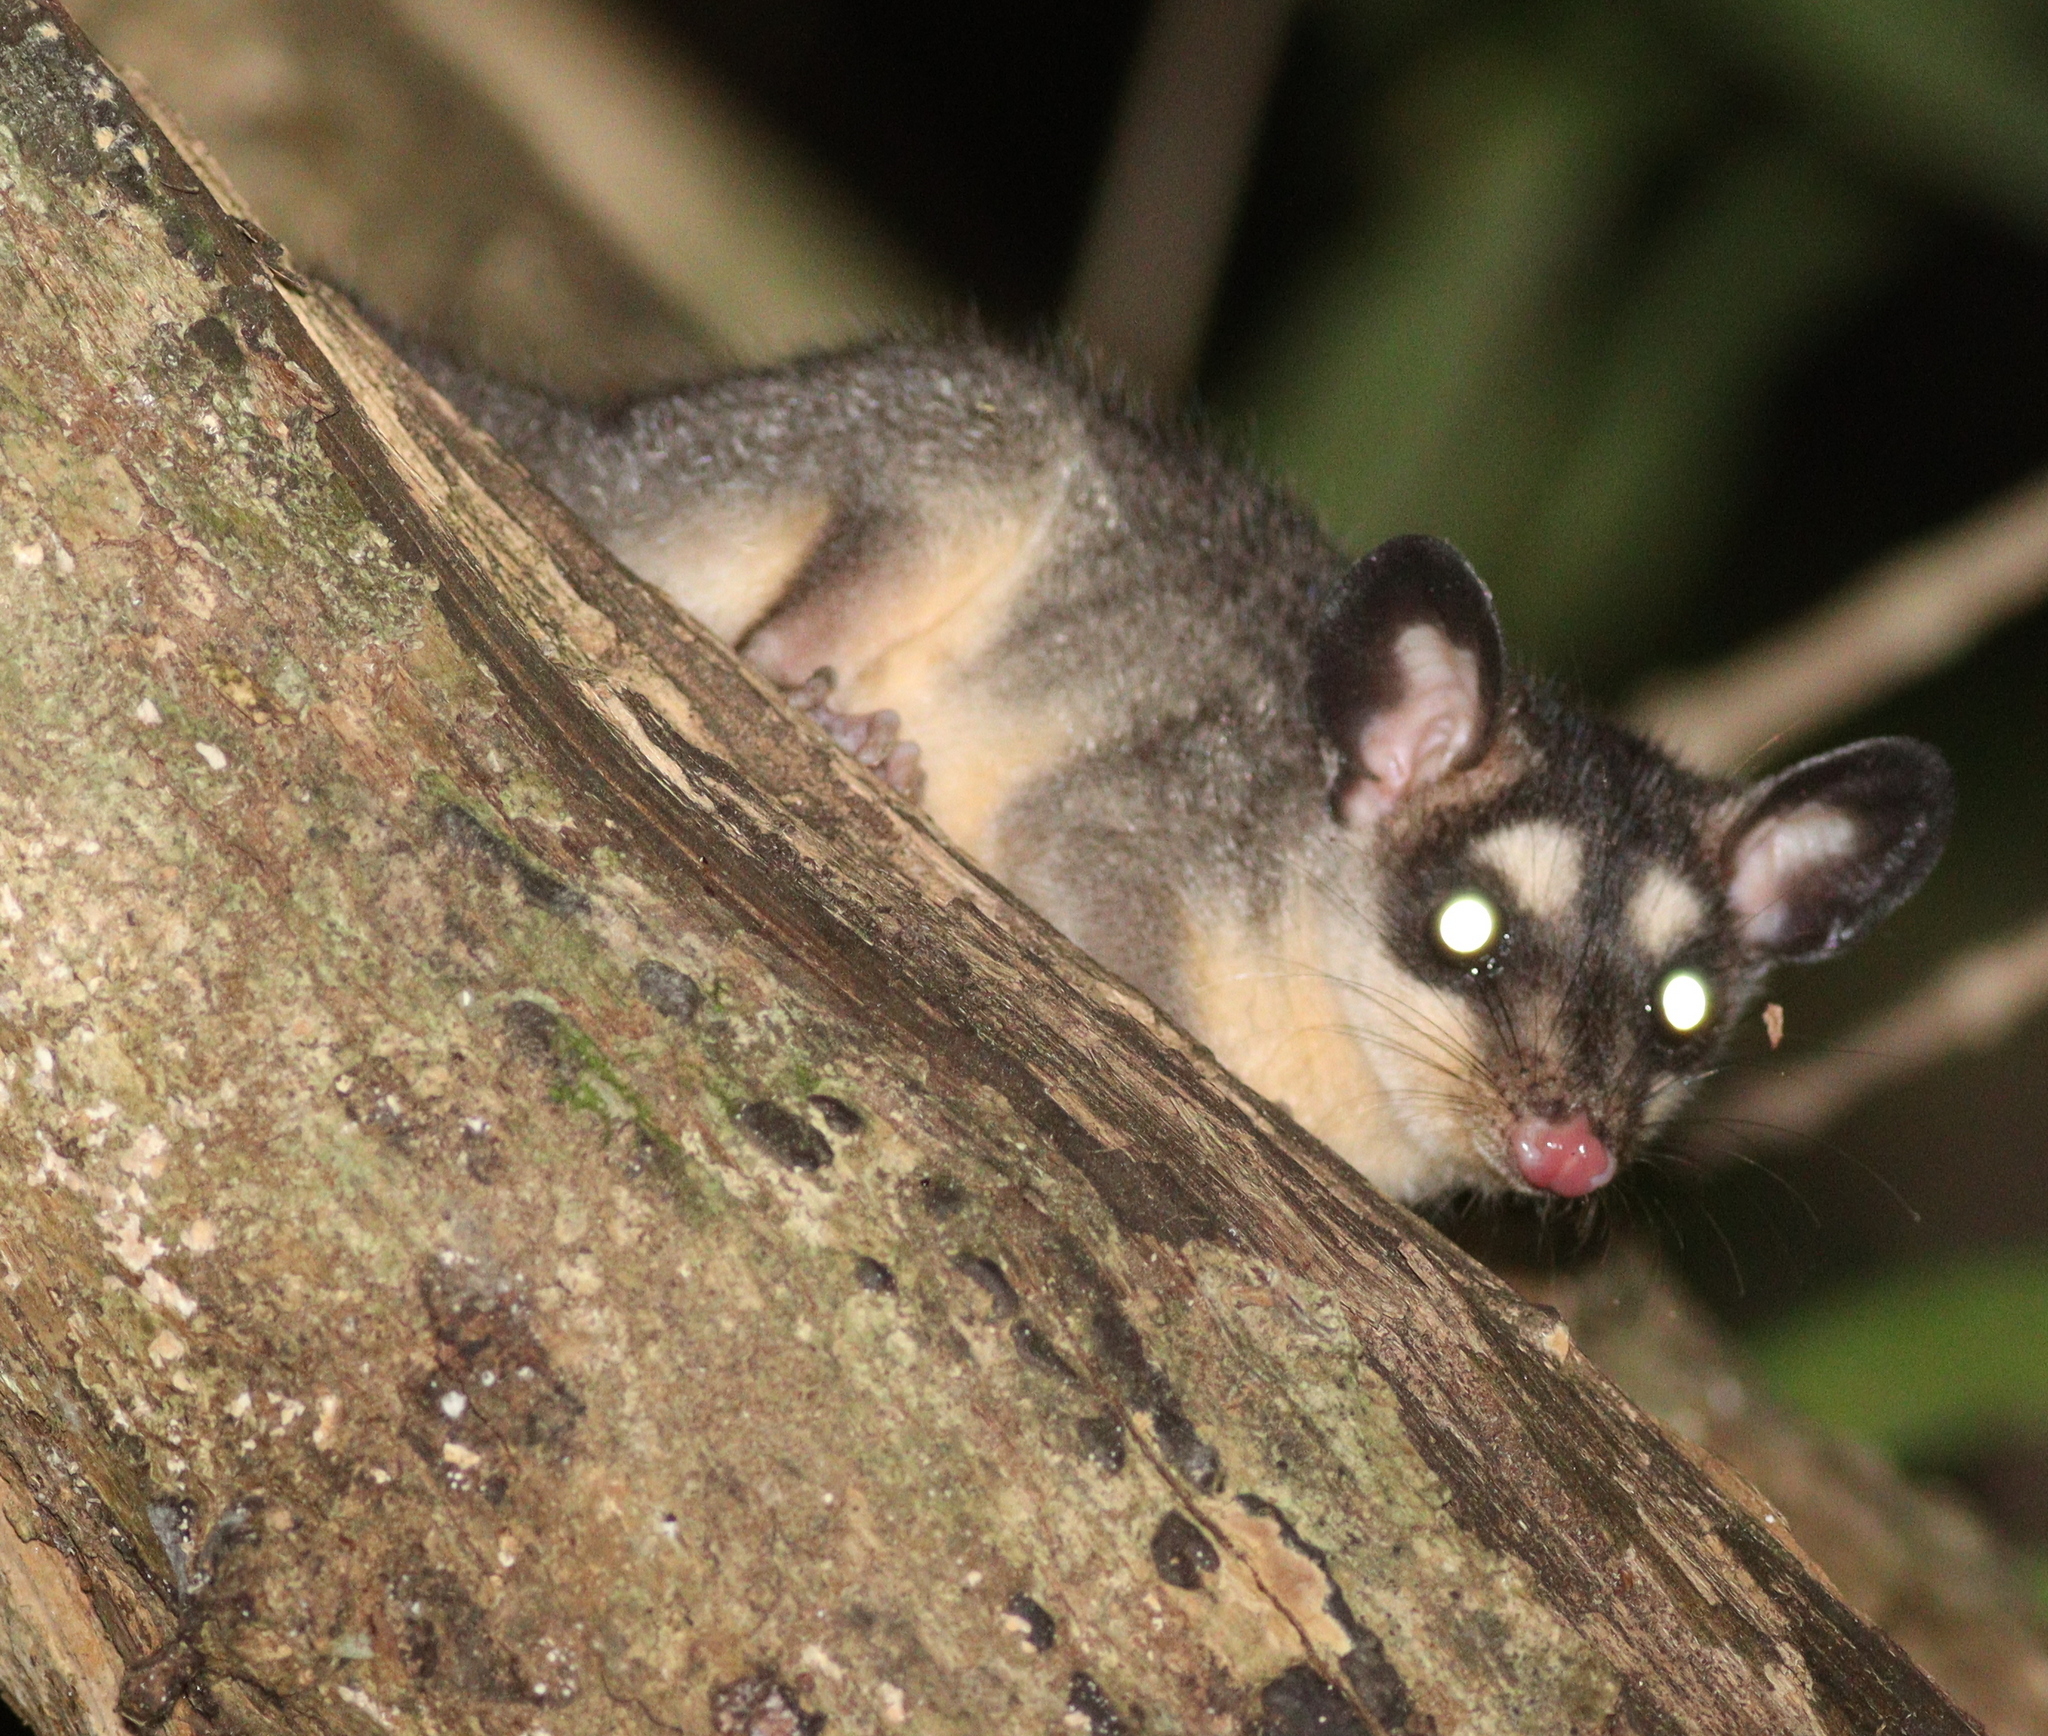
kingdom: Animalia
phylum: Chordata
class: Mammalia
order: Didelphimorphia
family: Didelphidae
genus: Philander
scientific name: Philander
